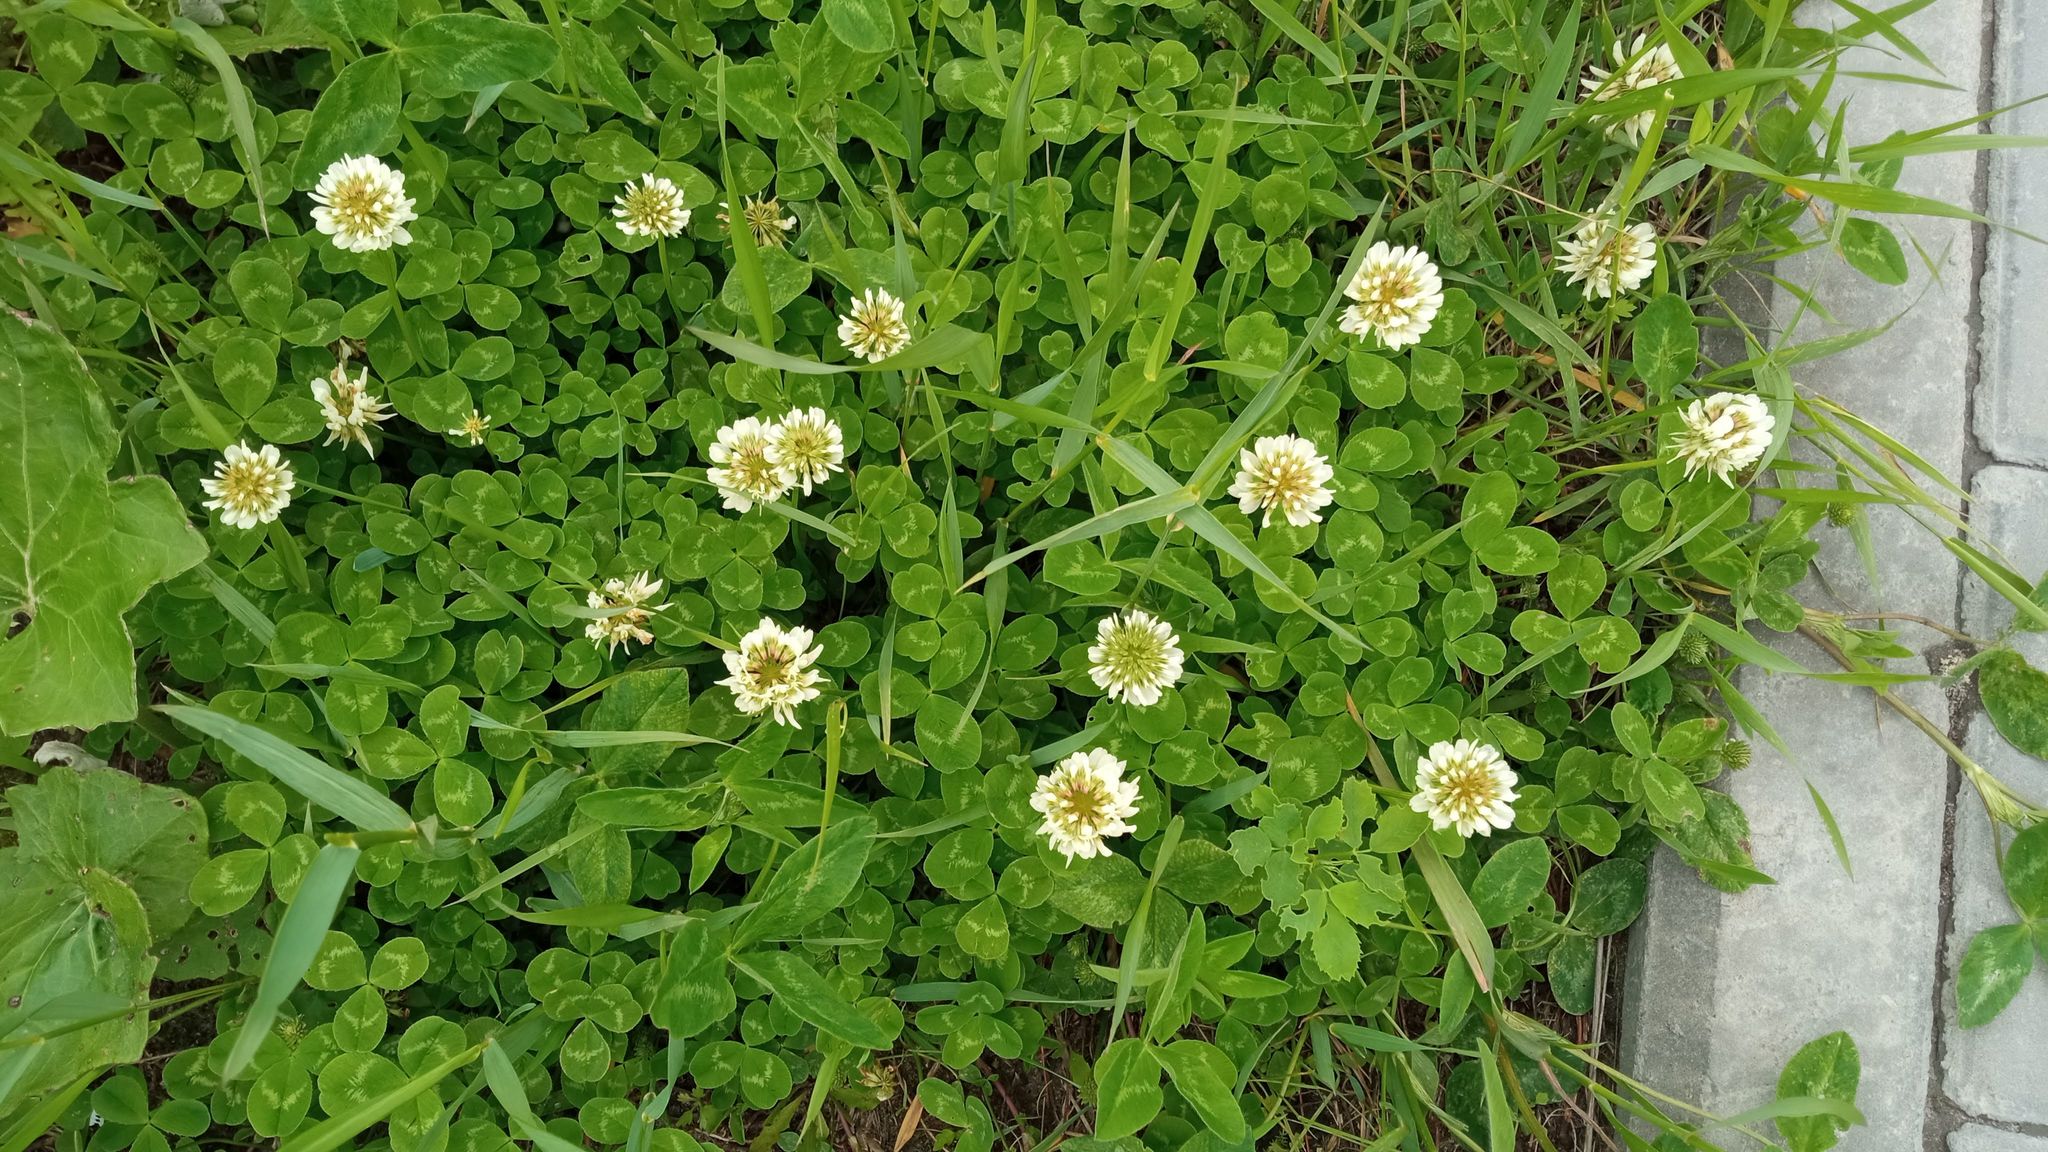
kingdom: Plantae
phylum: Tracheophyta
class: Magnoliopsida
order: Fabales
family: Fabaceae
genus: Trifolium
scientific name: Trifolium repens
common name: White clover
